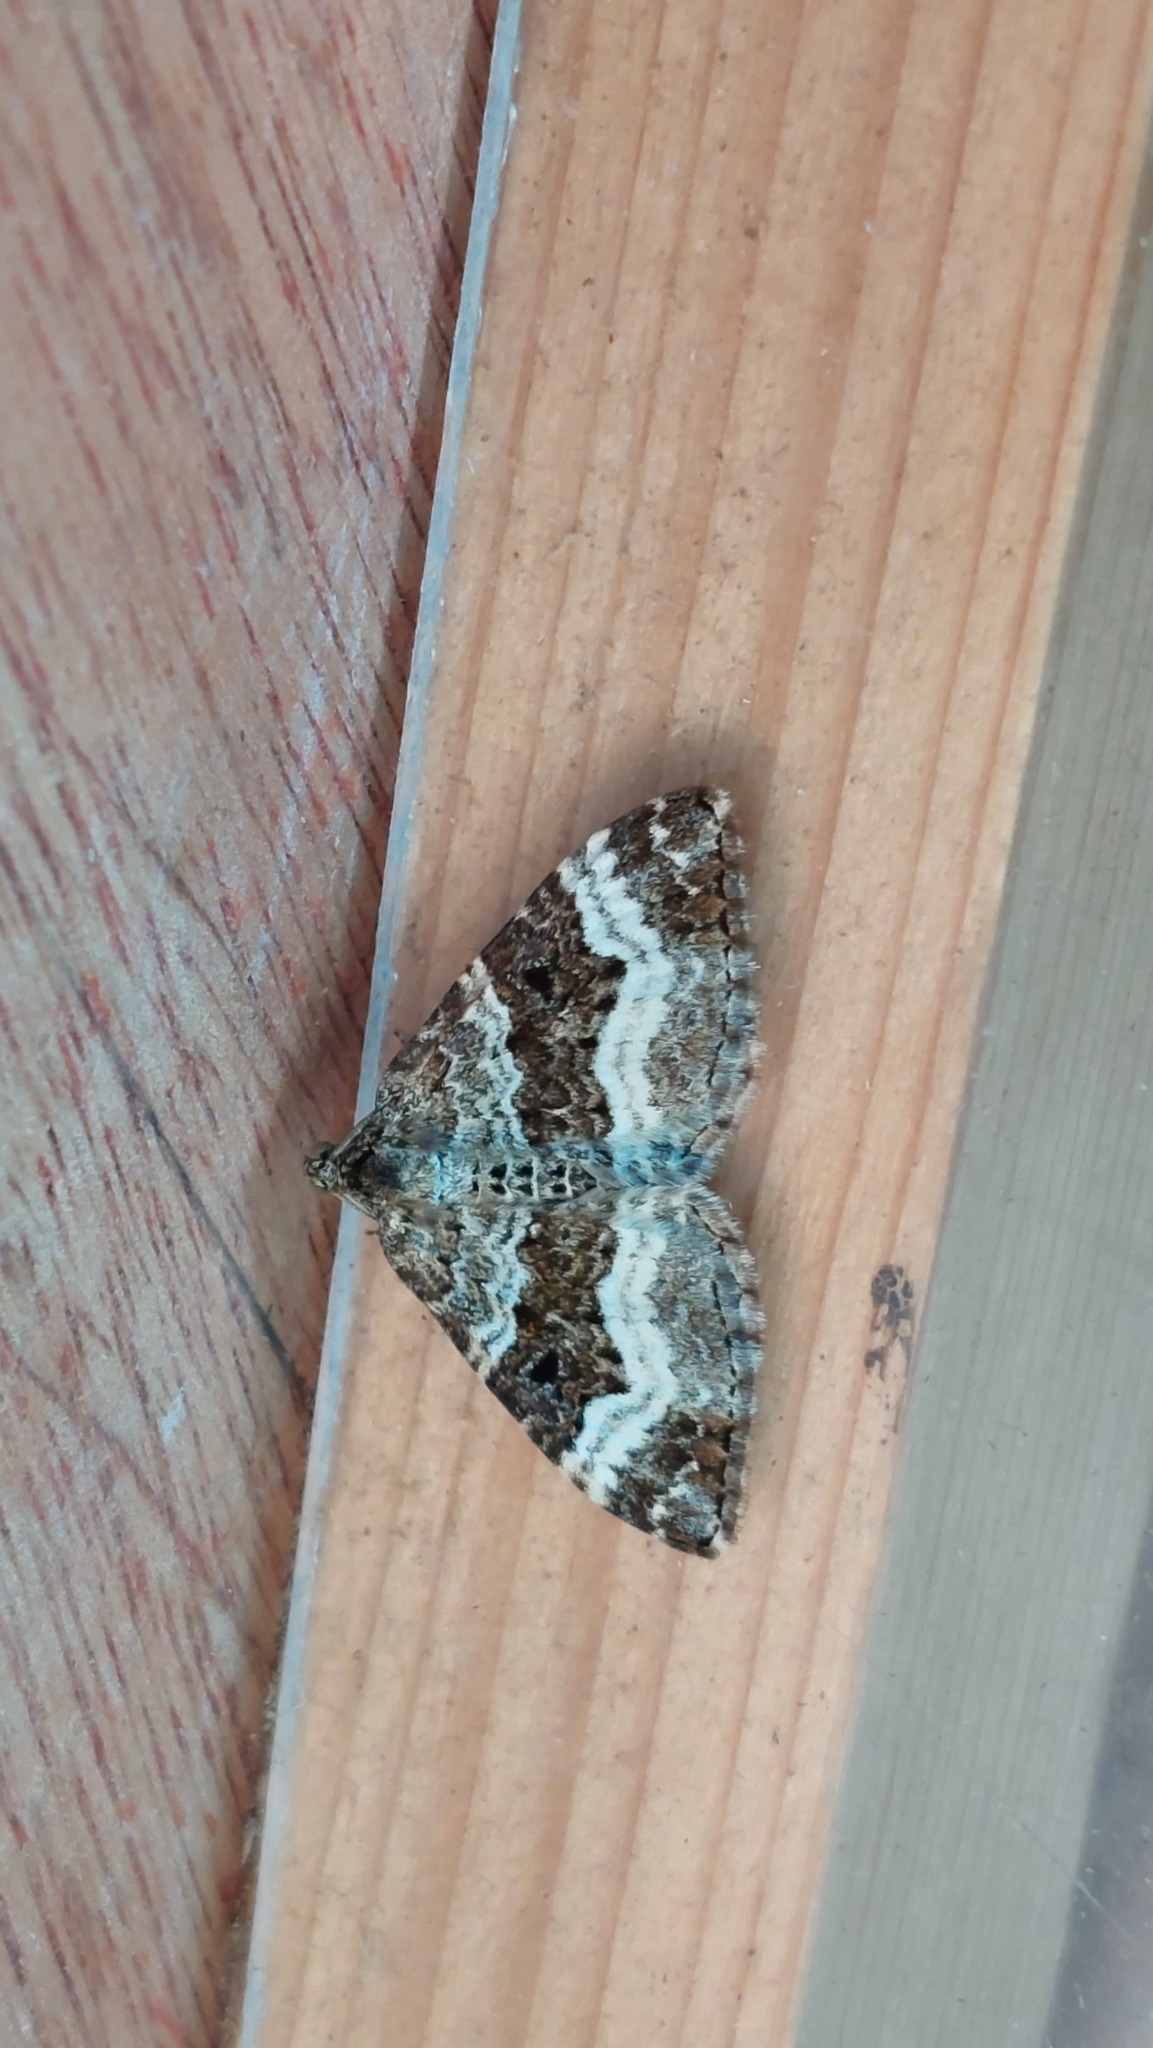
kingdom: Animalia
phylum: Arthropoda
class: Insecta
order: Lepidoptera
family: Geometridae
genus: Epirrhoe
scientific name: Epirrhoe alternata
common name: Common carpet
